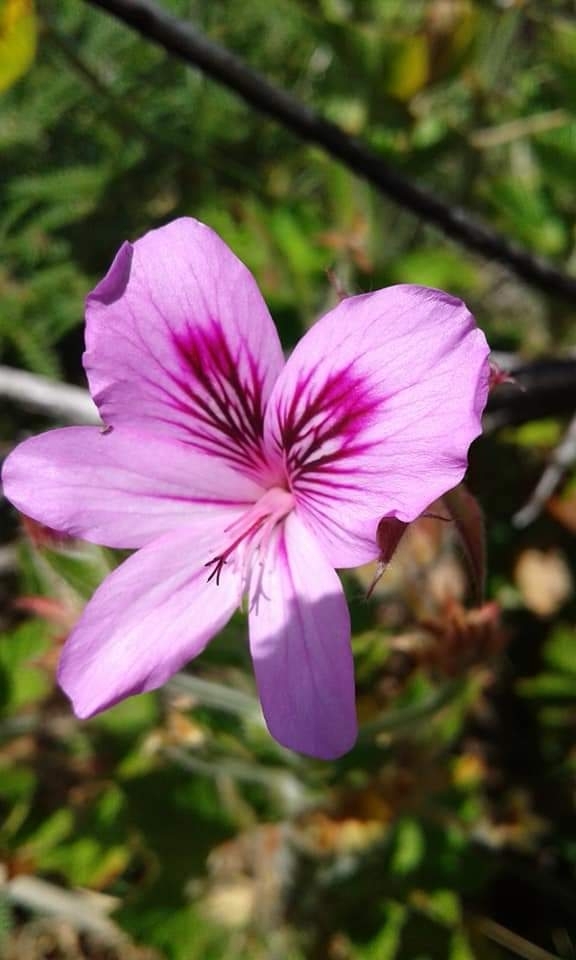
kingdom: Plantae
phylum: Tracheophyta
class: Magnoliopsida
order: Geraniales
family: Geraniaceae
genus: Pelargonium
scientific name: Pelargonium cucullatum
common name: Tree pelargonium
